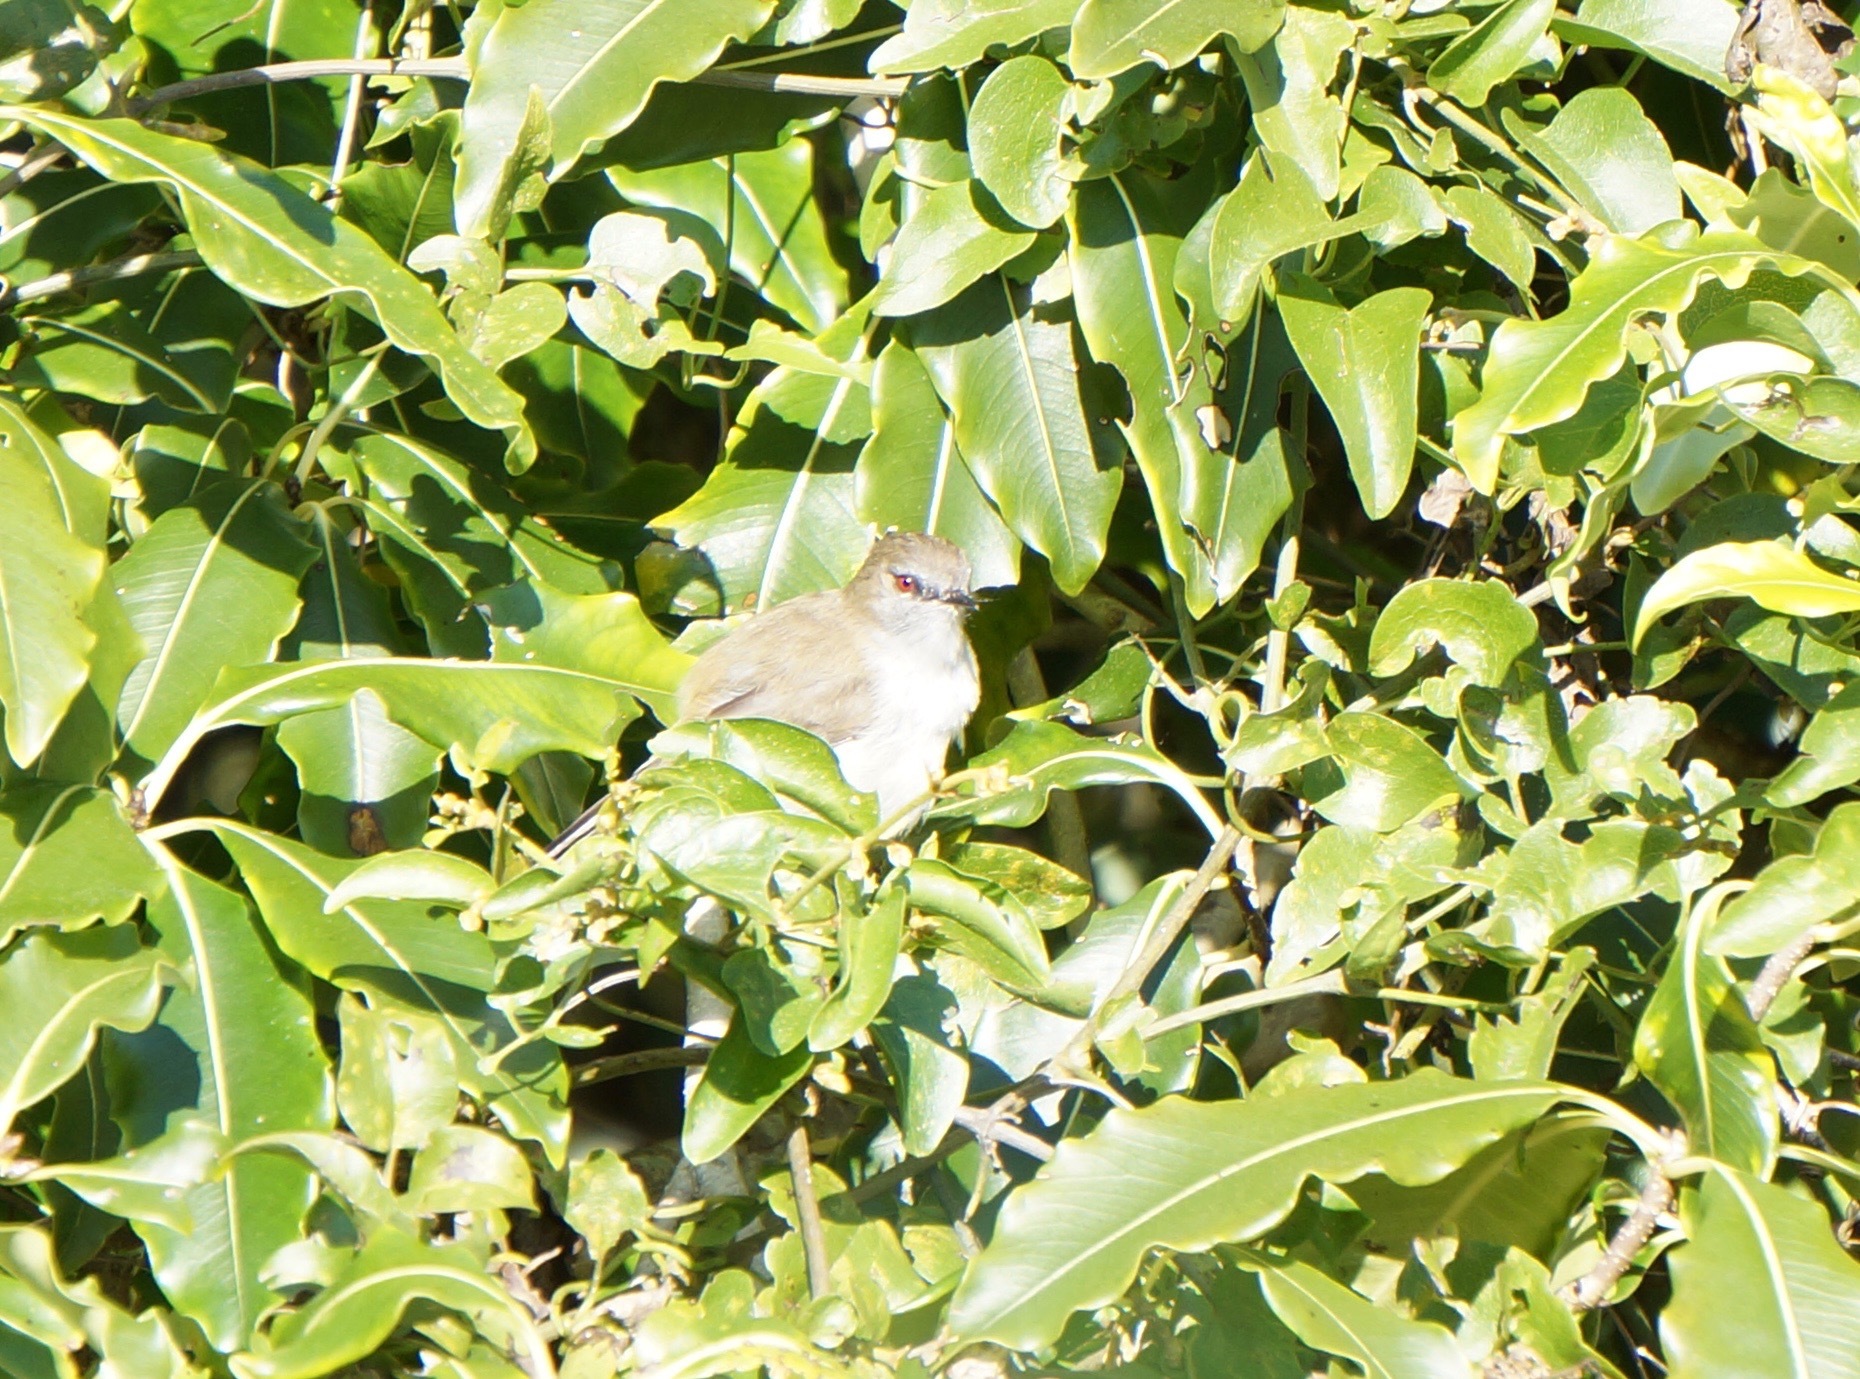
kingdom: Animalia
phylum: Chordata
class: Aves
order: Passeriformes
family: Acanthizidae
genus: Gerygone
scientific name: Gerygone igata
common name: Grey gerygone
